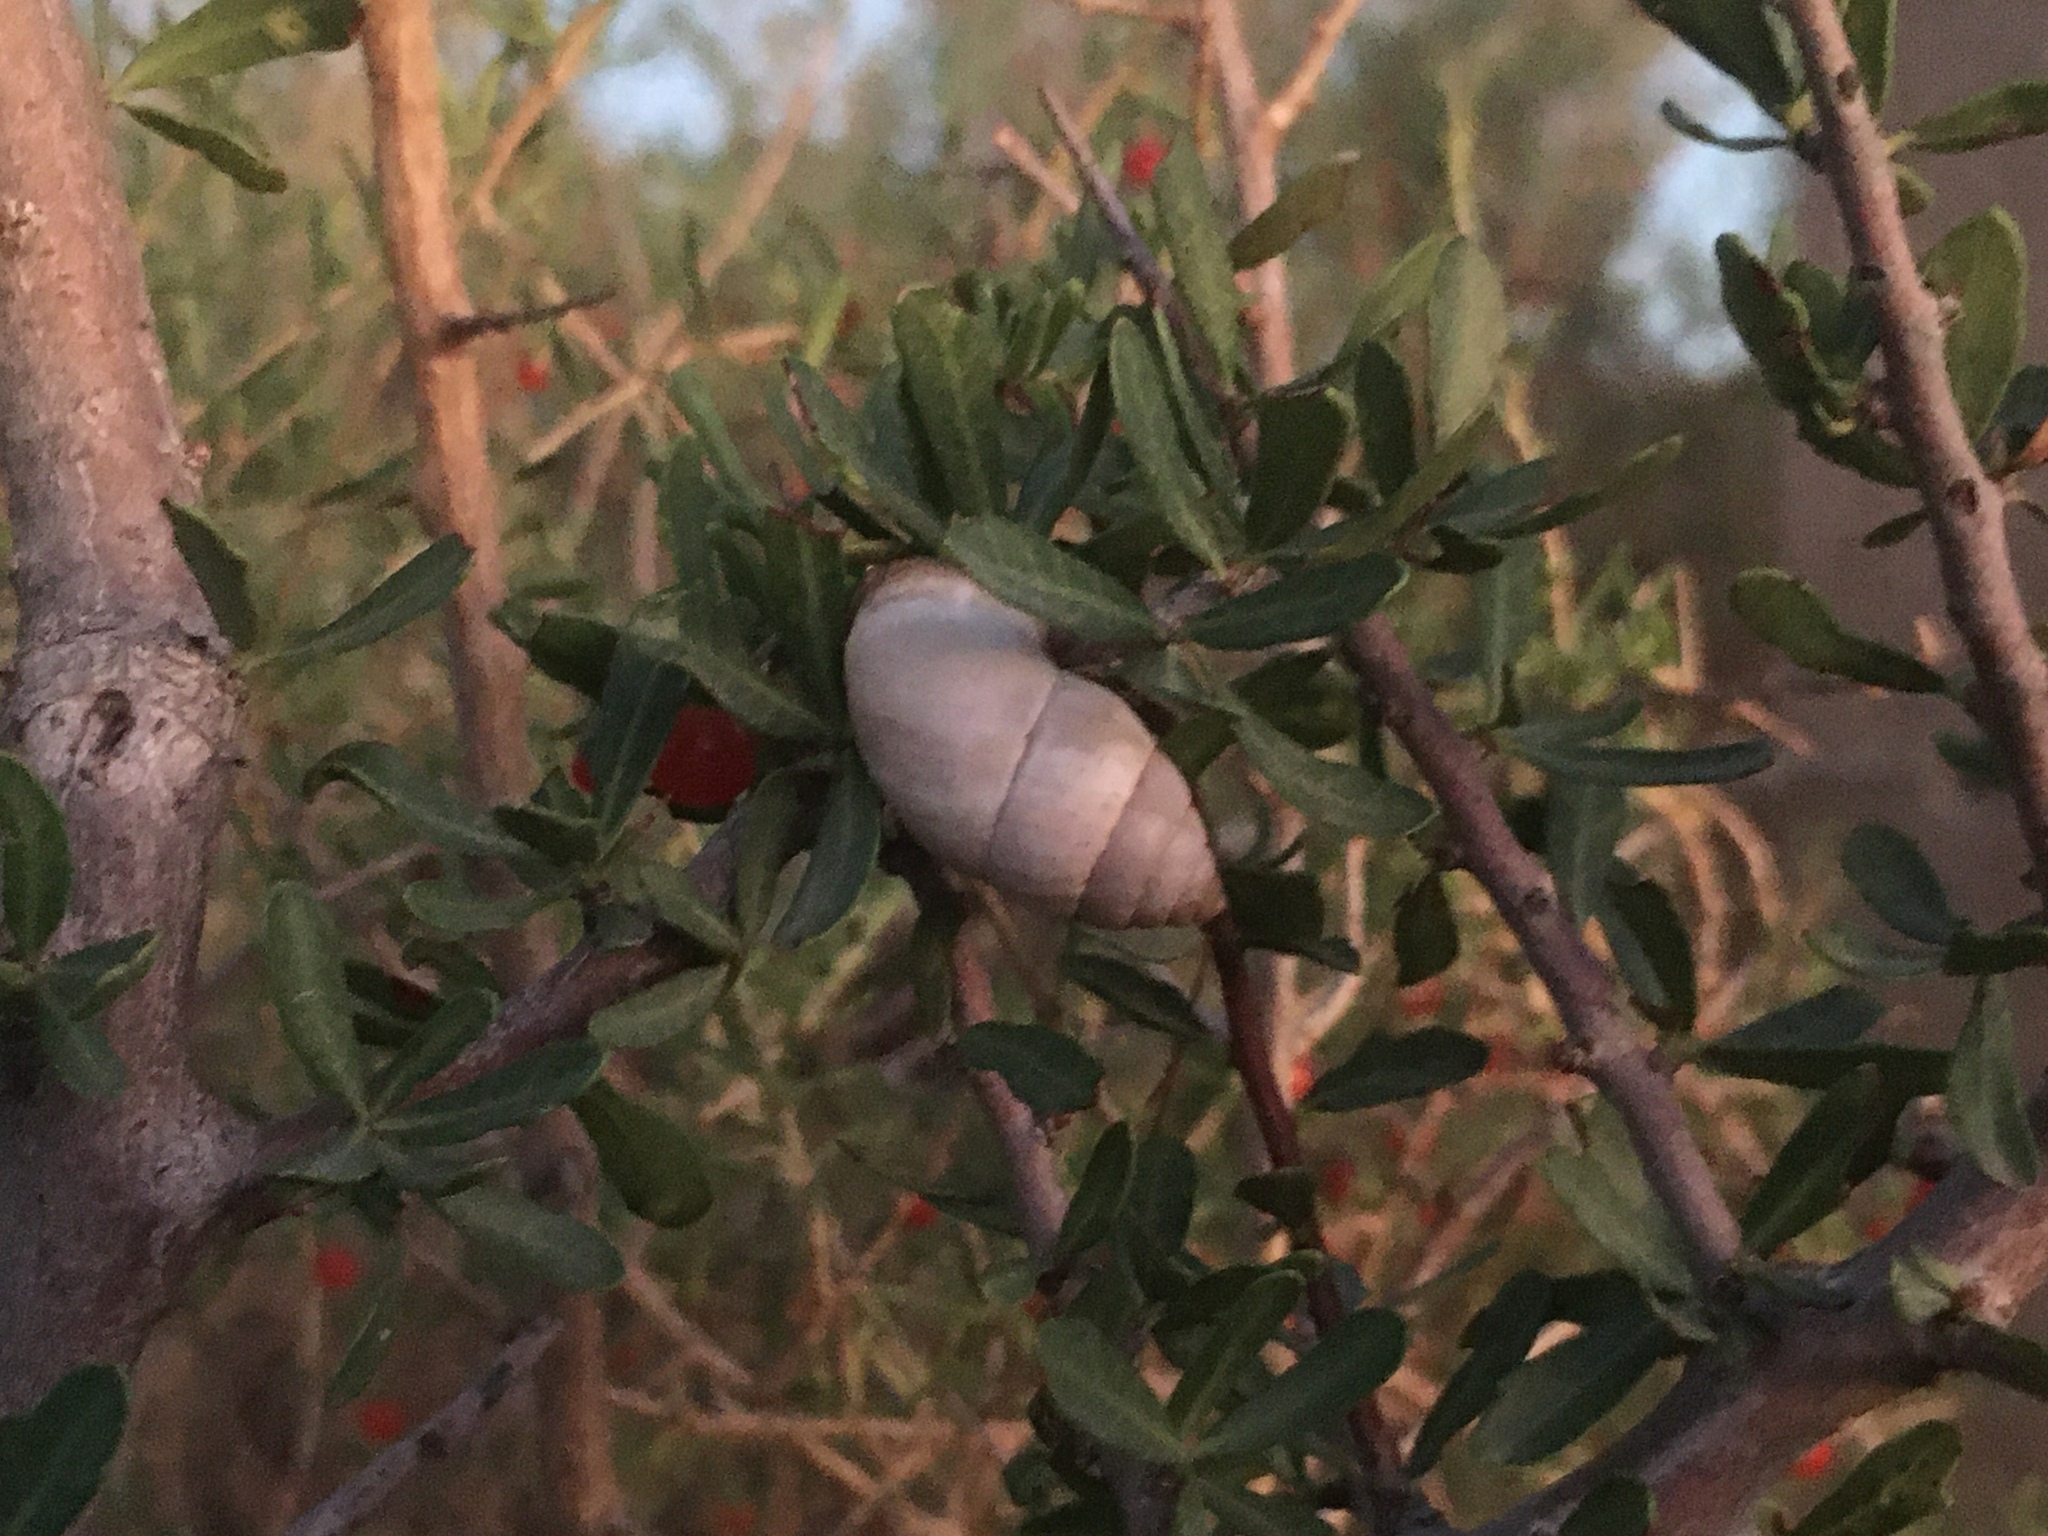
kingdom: Plantae
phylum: Tracheophyta
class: Magnoliopsida
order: Sapindales
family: Anacardiaceae
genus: Schinus
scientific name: Schinus fasciculata
